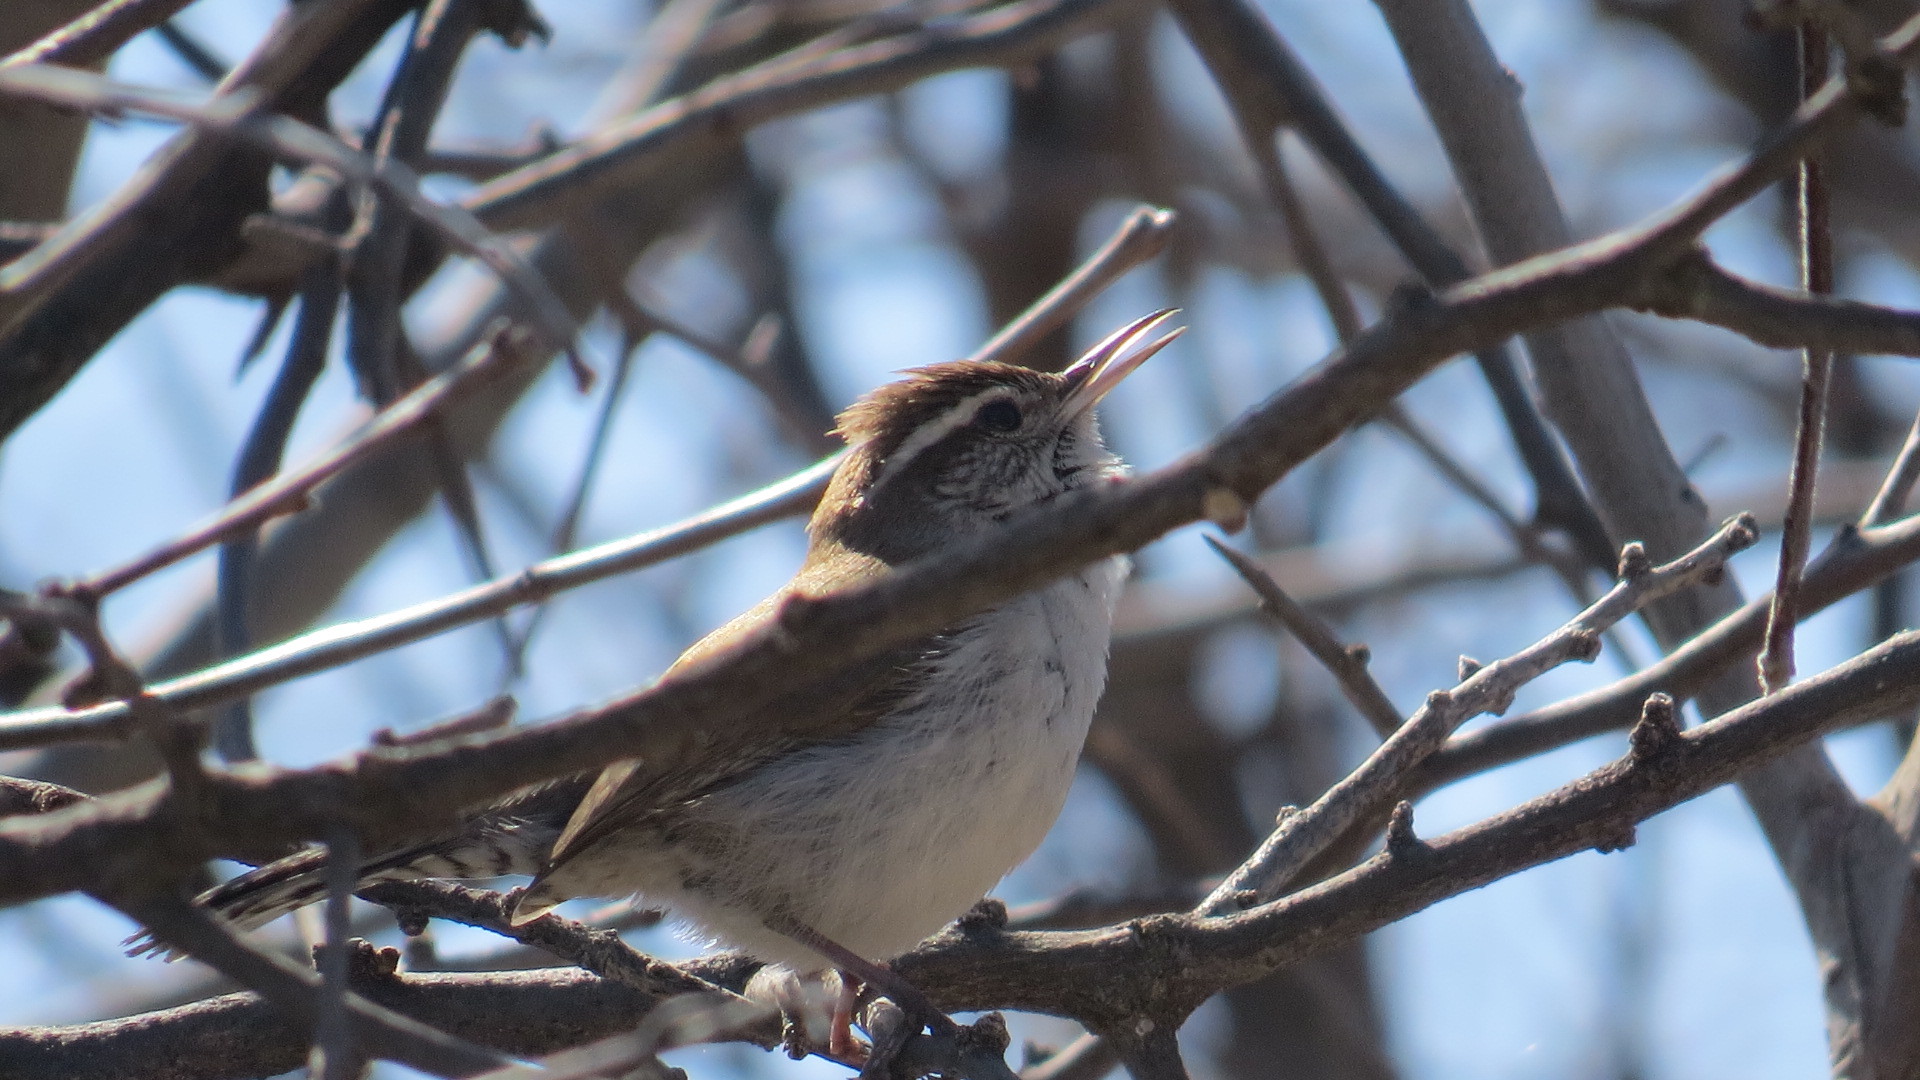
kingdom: Animalia
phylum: Chordata
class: Aves
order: Passeriformes
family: Troglodytidae
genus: Thryomanes
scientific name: Thryomanes bewickii
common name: Bewick's wren
